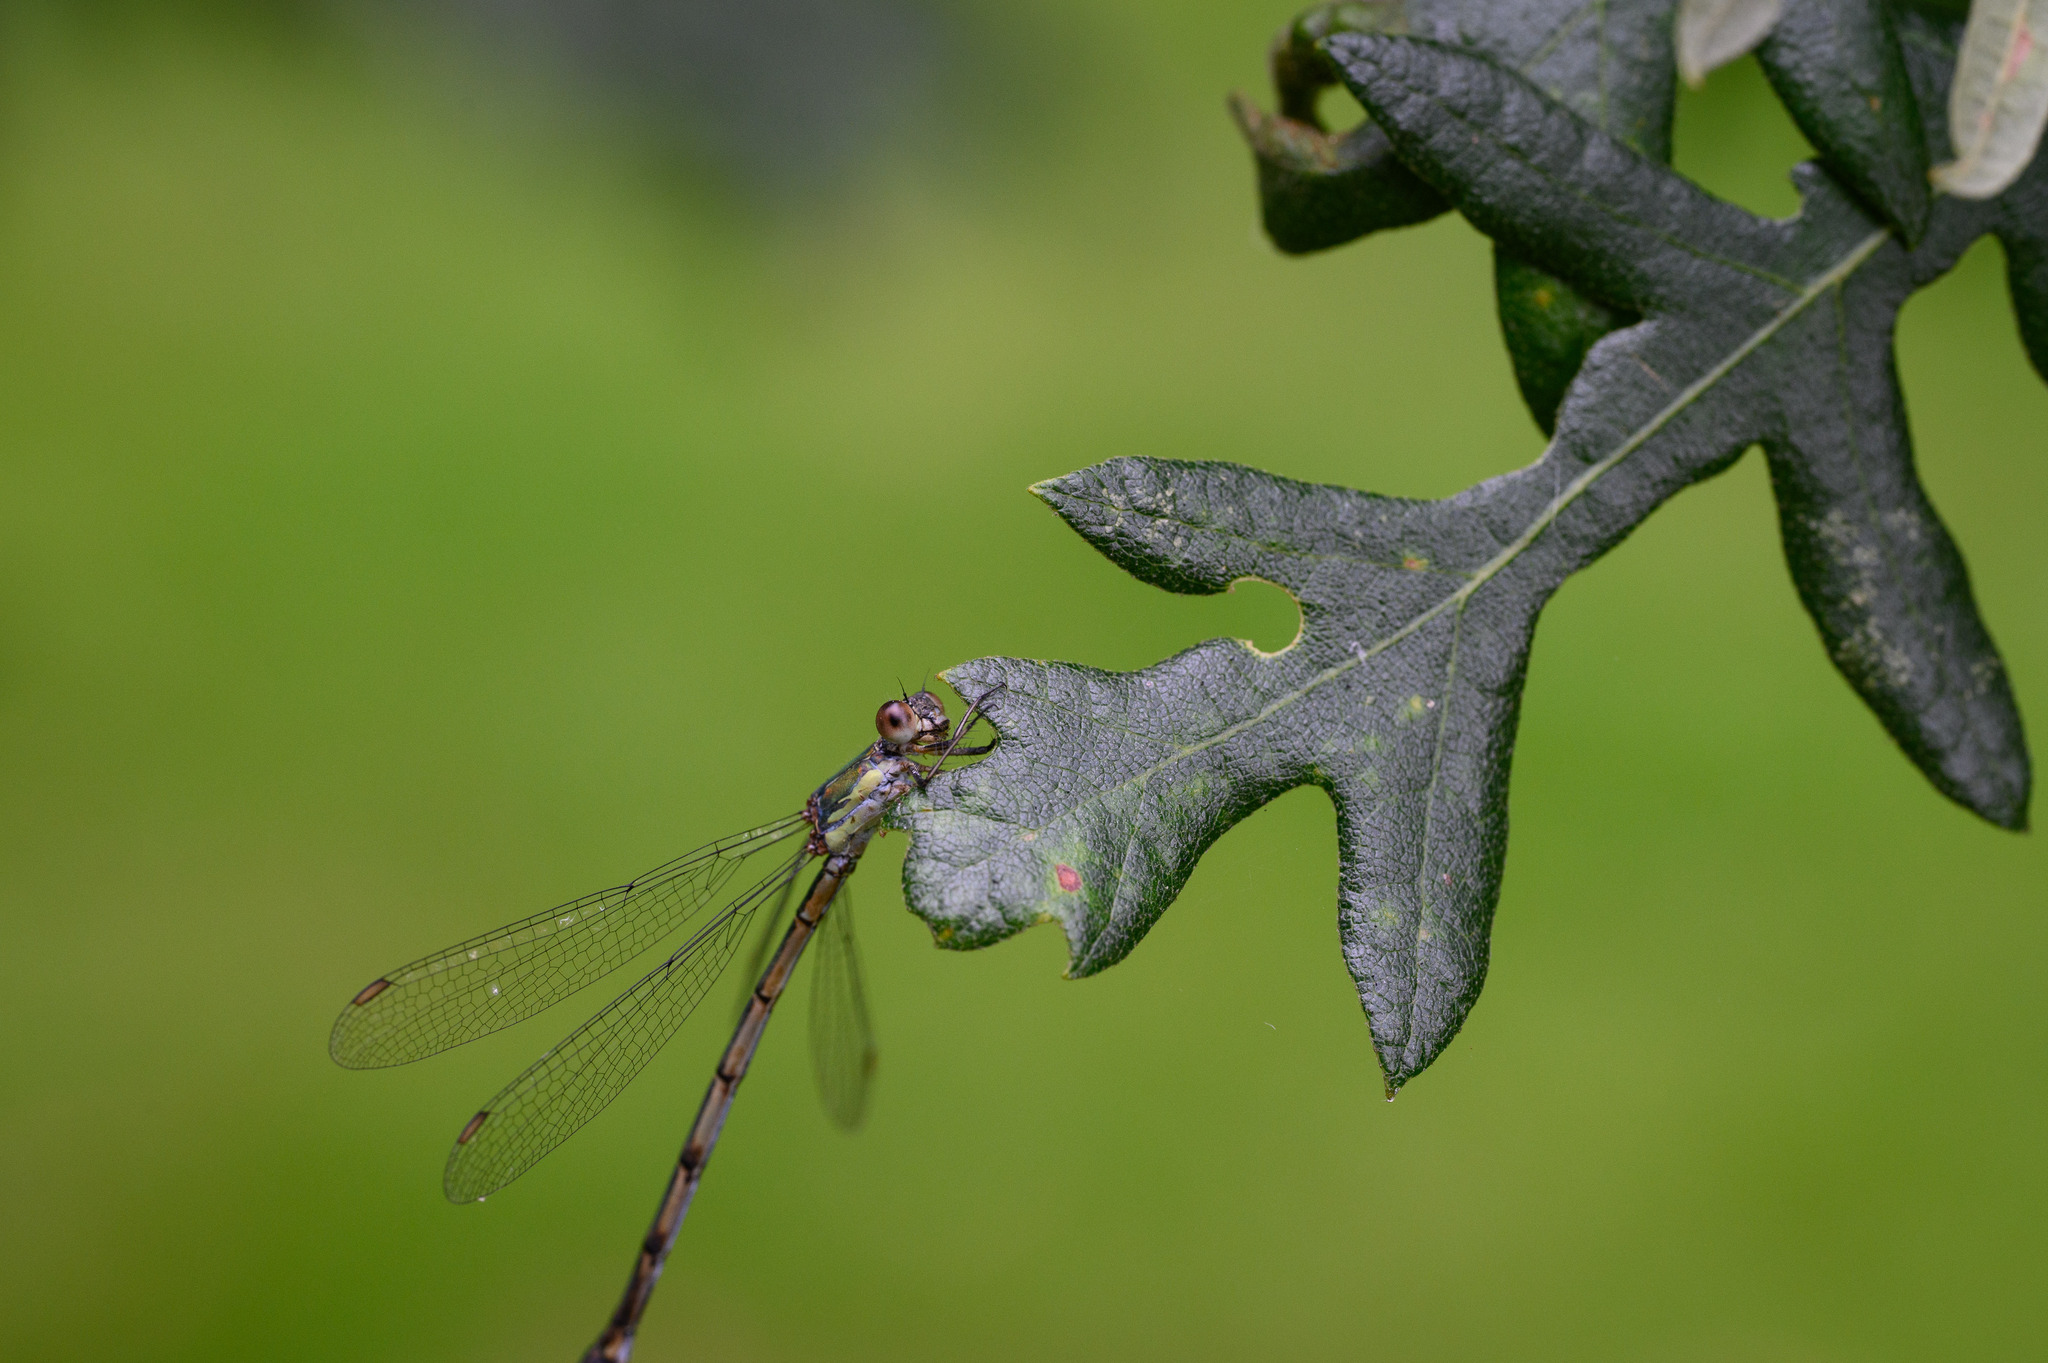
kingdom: Animalia
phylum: Arthropoda
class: Insecta
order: Odonata
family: Lestidae
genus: Chalcolestes
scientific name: Chalcolestes viridis
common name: Green emerald damselfly
